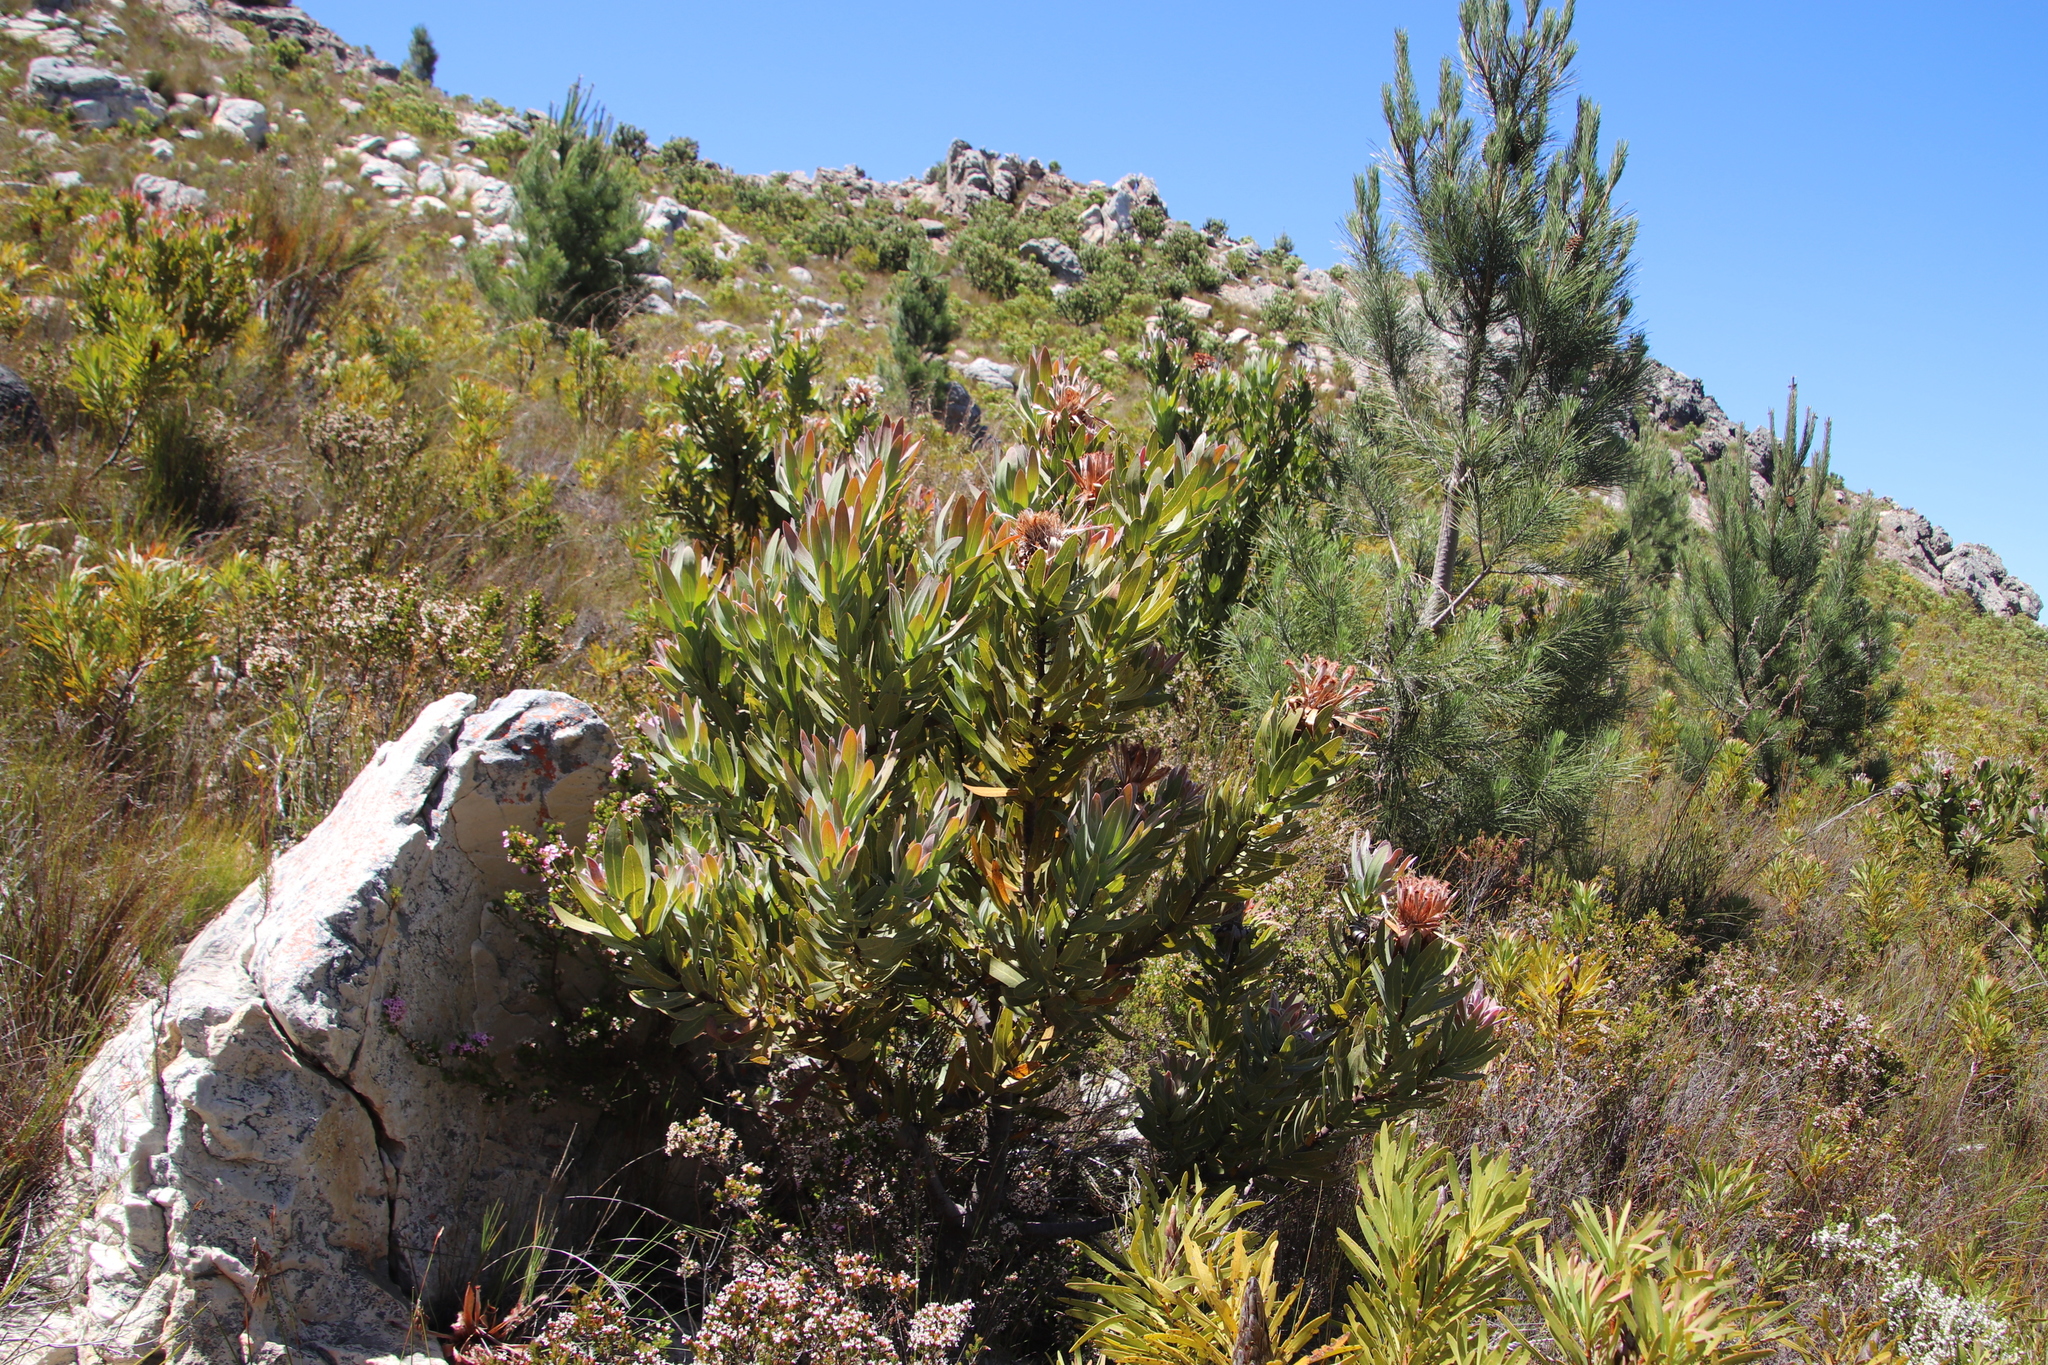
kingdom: Plantae
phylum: Tracheophyta
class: Magnoliopsida
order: Proteales
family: Proteaceae
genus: Protea
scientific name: Protea laurifolia
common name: Grey-leaf sugarbsh
